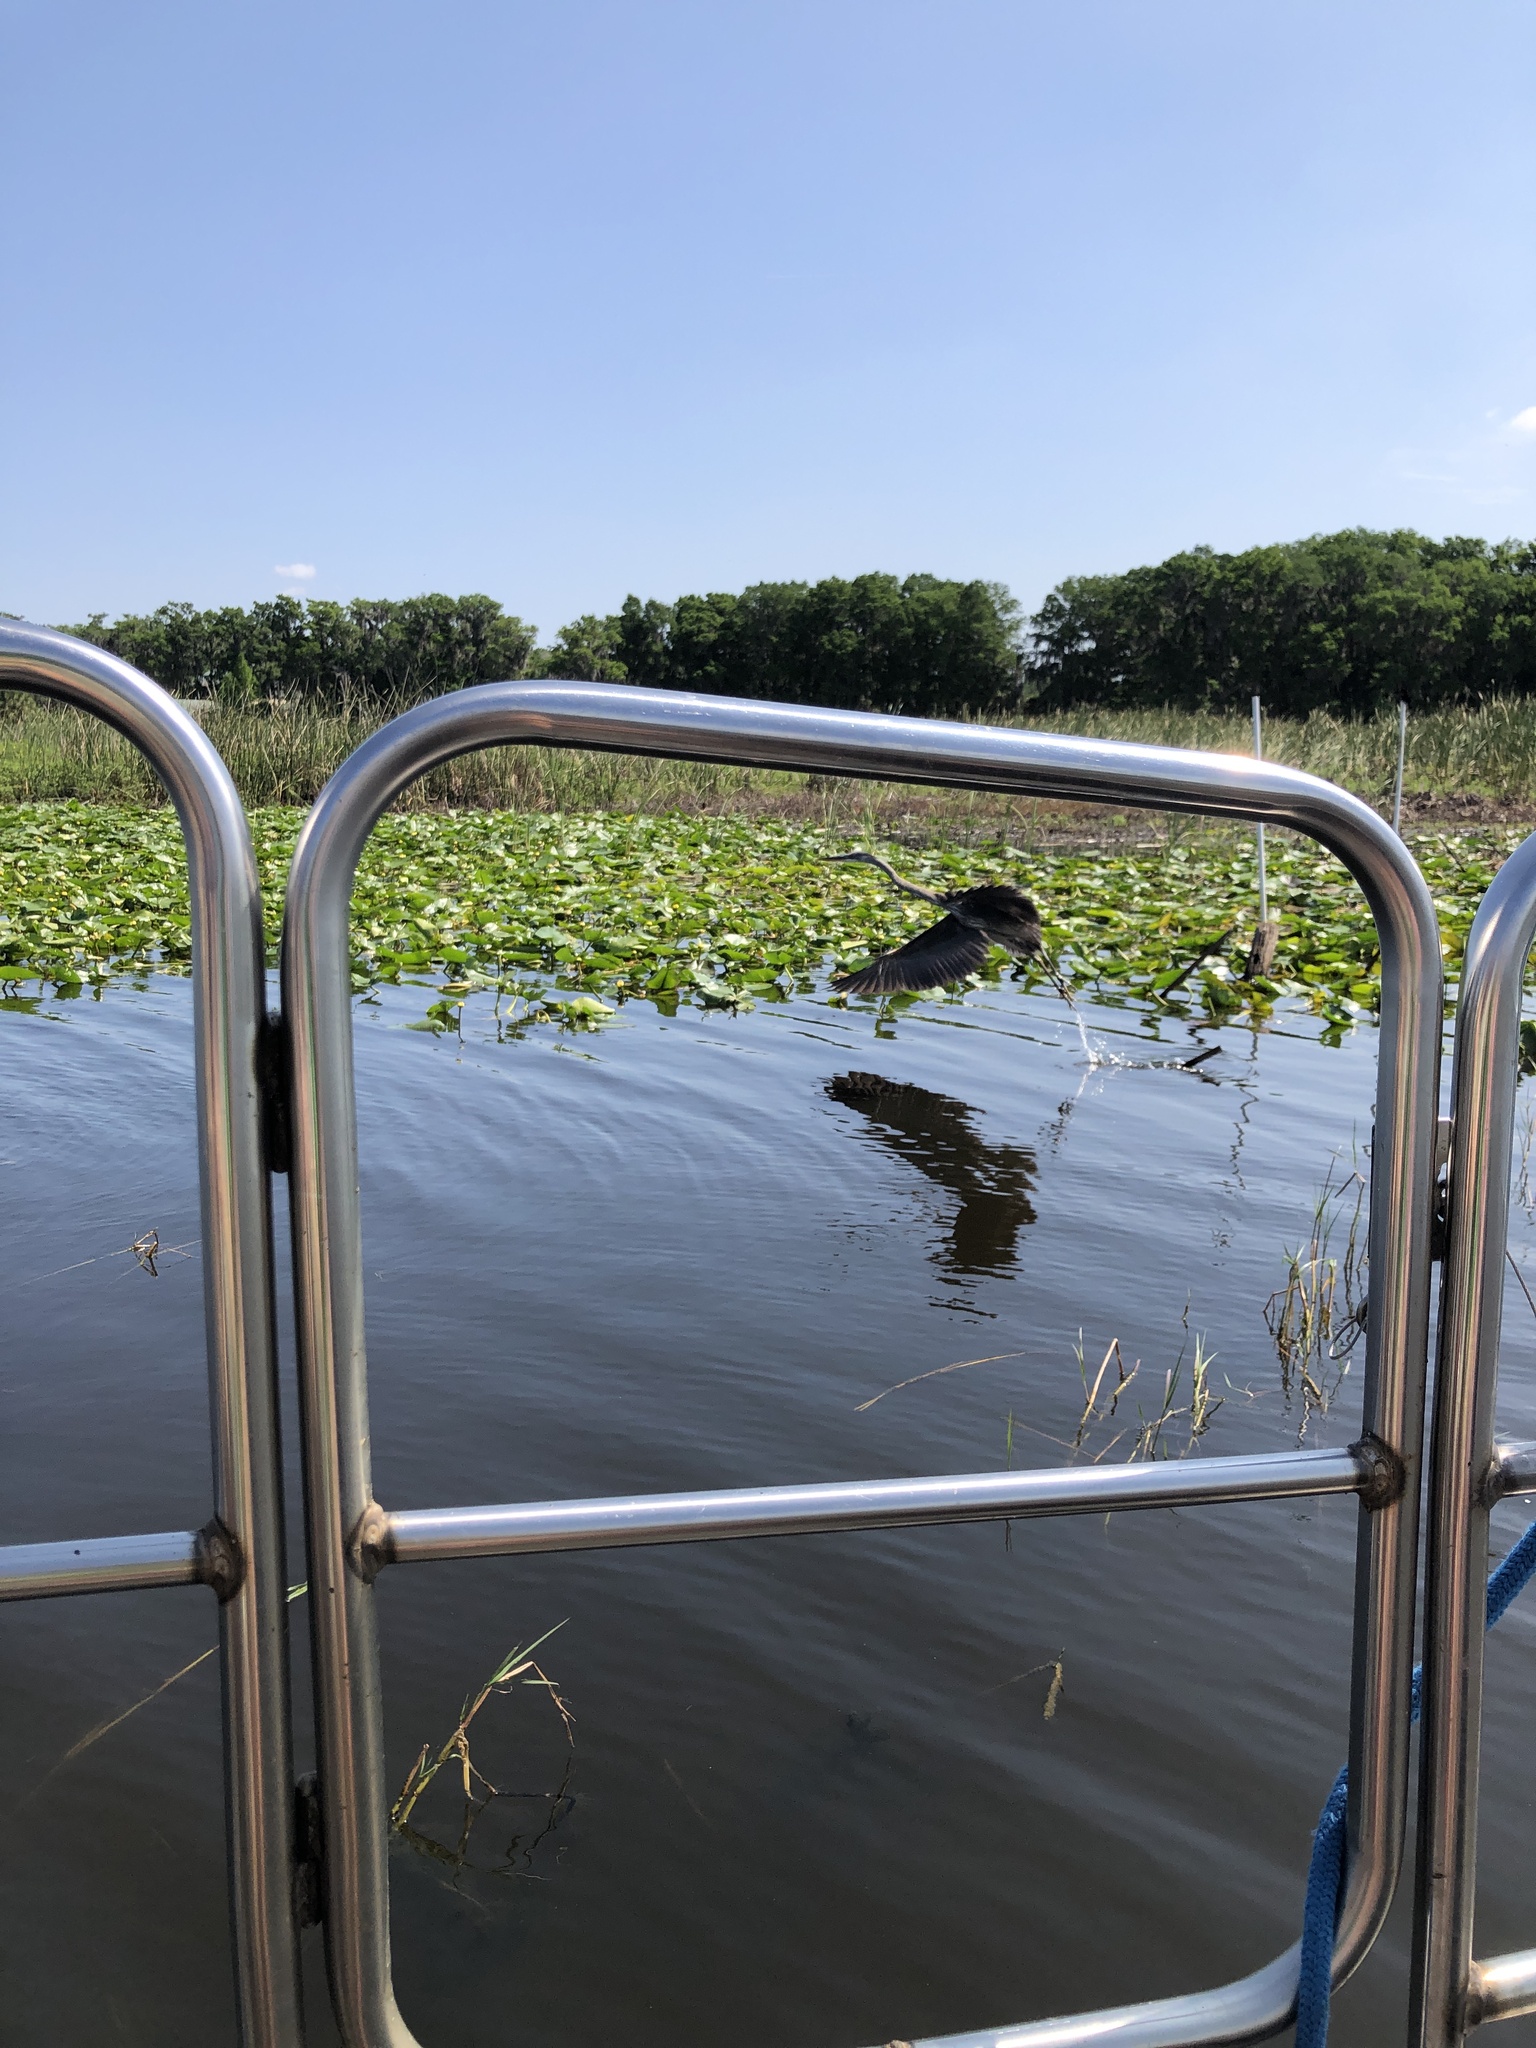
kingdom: Animalia
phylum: Chordata
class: Aves
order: Pelecaniformes
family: Ardeidae
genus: Ardea
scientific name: Ardea herodias
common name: Great blue heron
